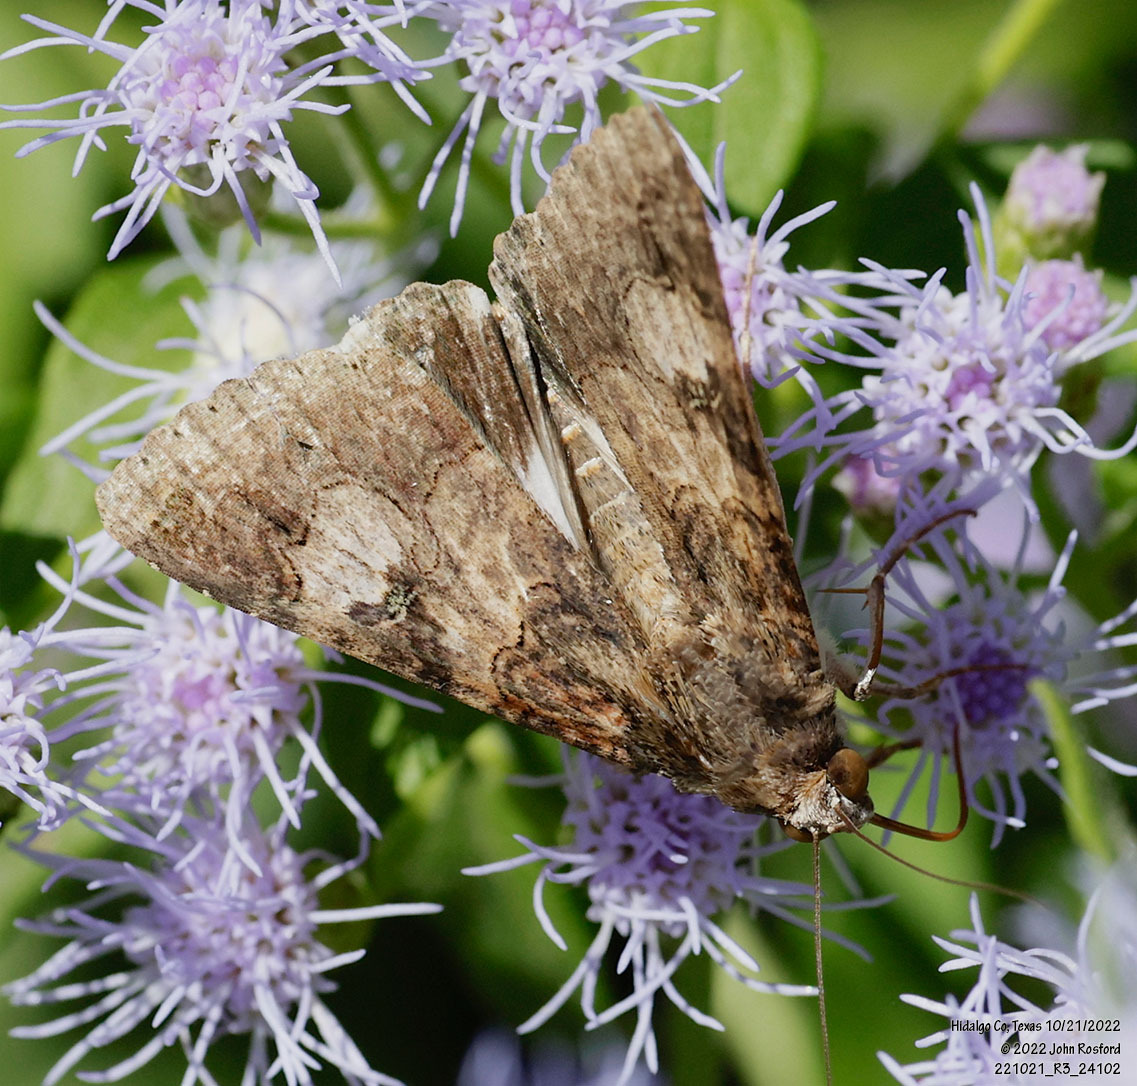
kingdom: Animalia
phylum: Arthropoda
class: Insecta
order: Lepidoptera
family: Erebidae
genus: Melipotis
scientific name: Melipotis famelica
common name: Famelica melipotis moth
